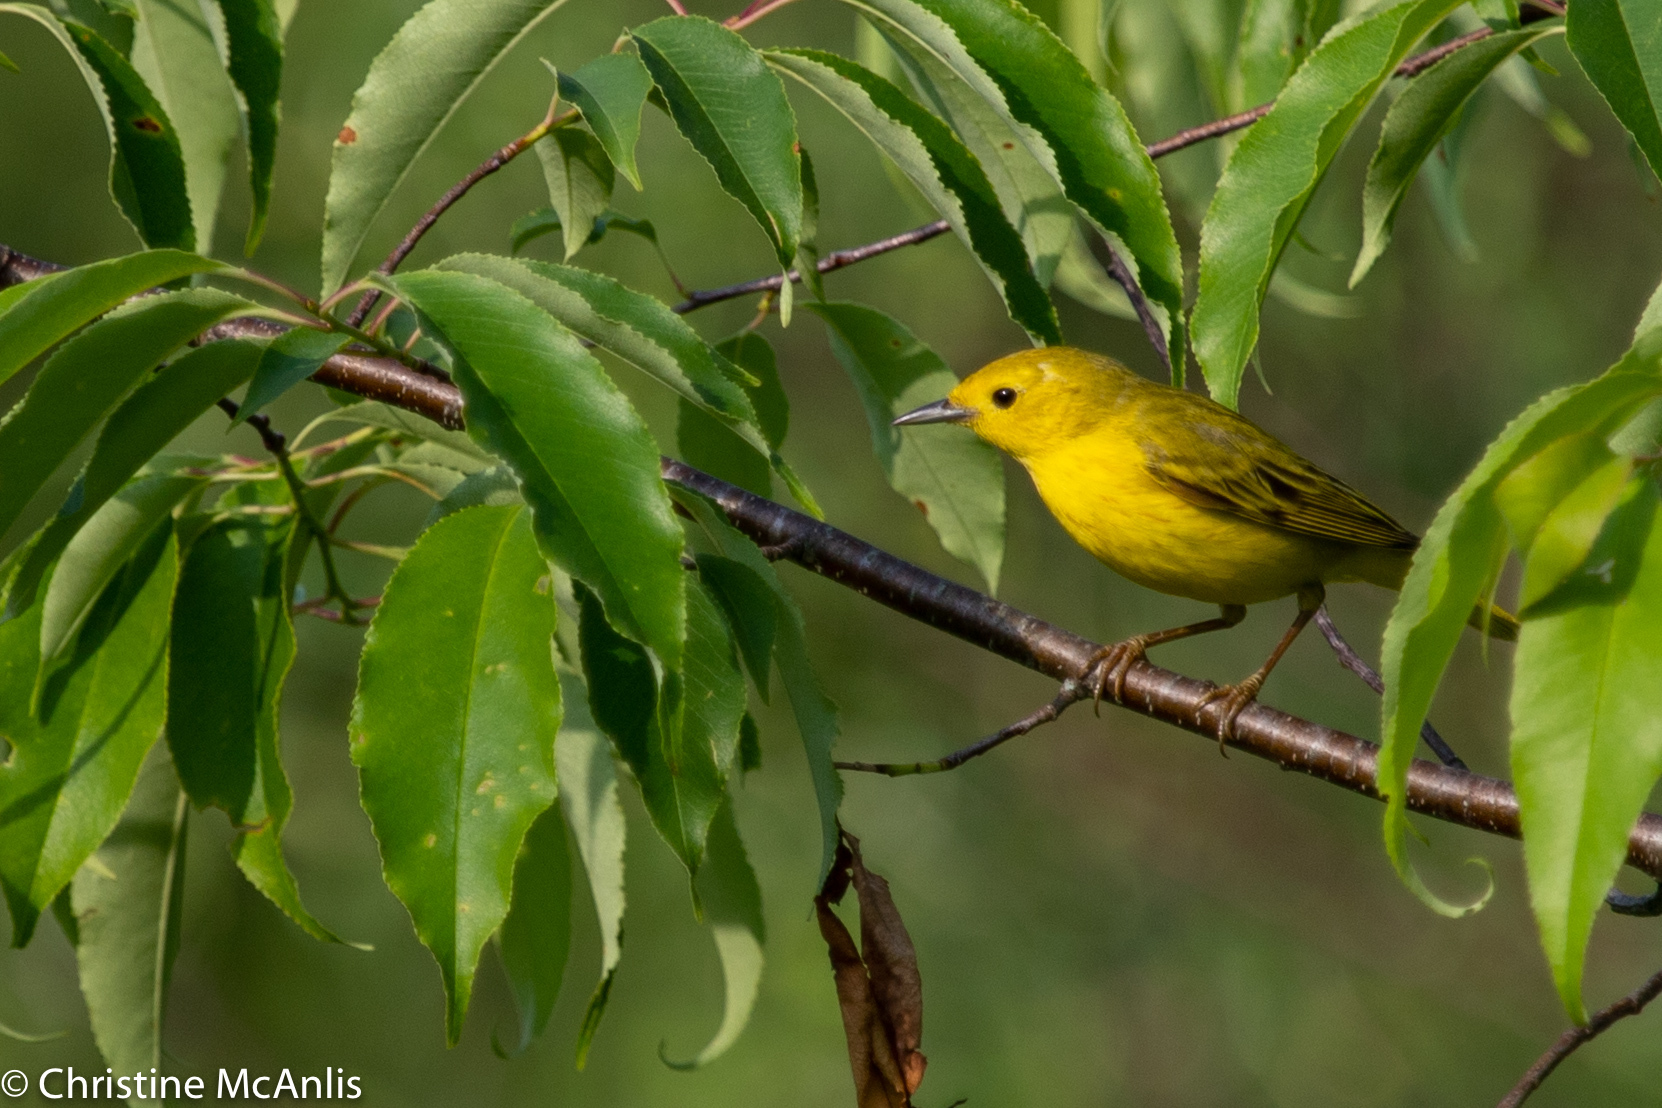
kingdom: Animalia
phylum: Chordata
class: Aves
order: Passeriformes
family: Parulidae
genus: Setophaga
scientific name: Setophaga petechia
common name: Yellow warbler
